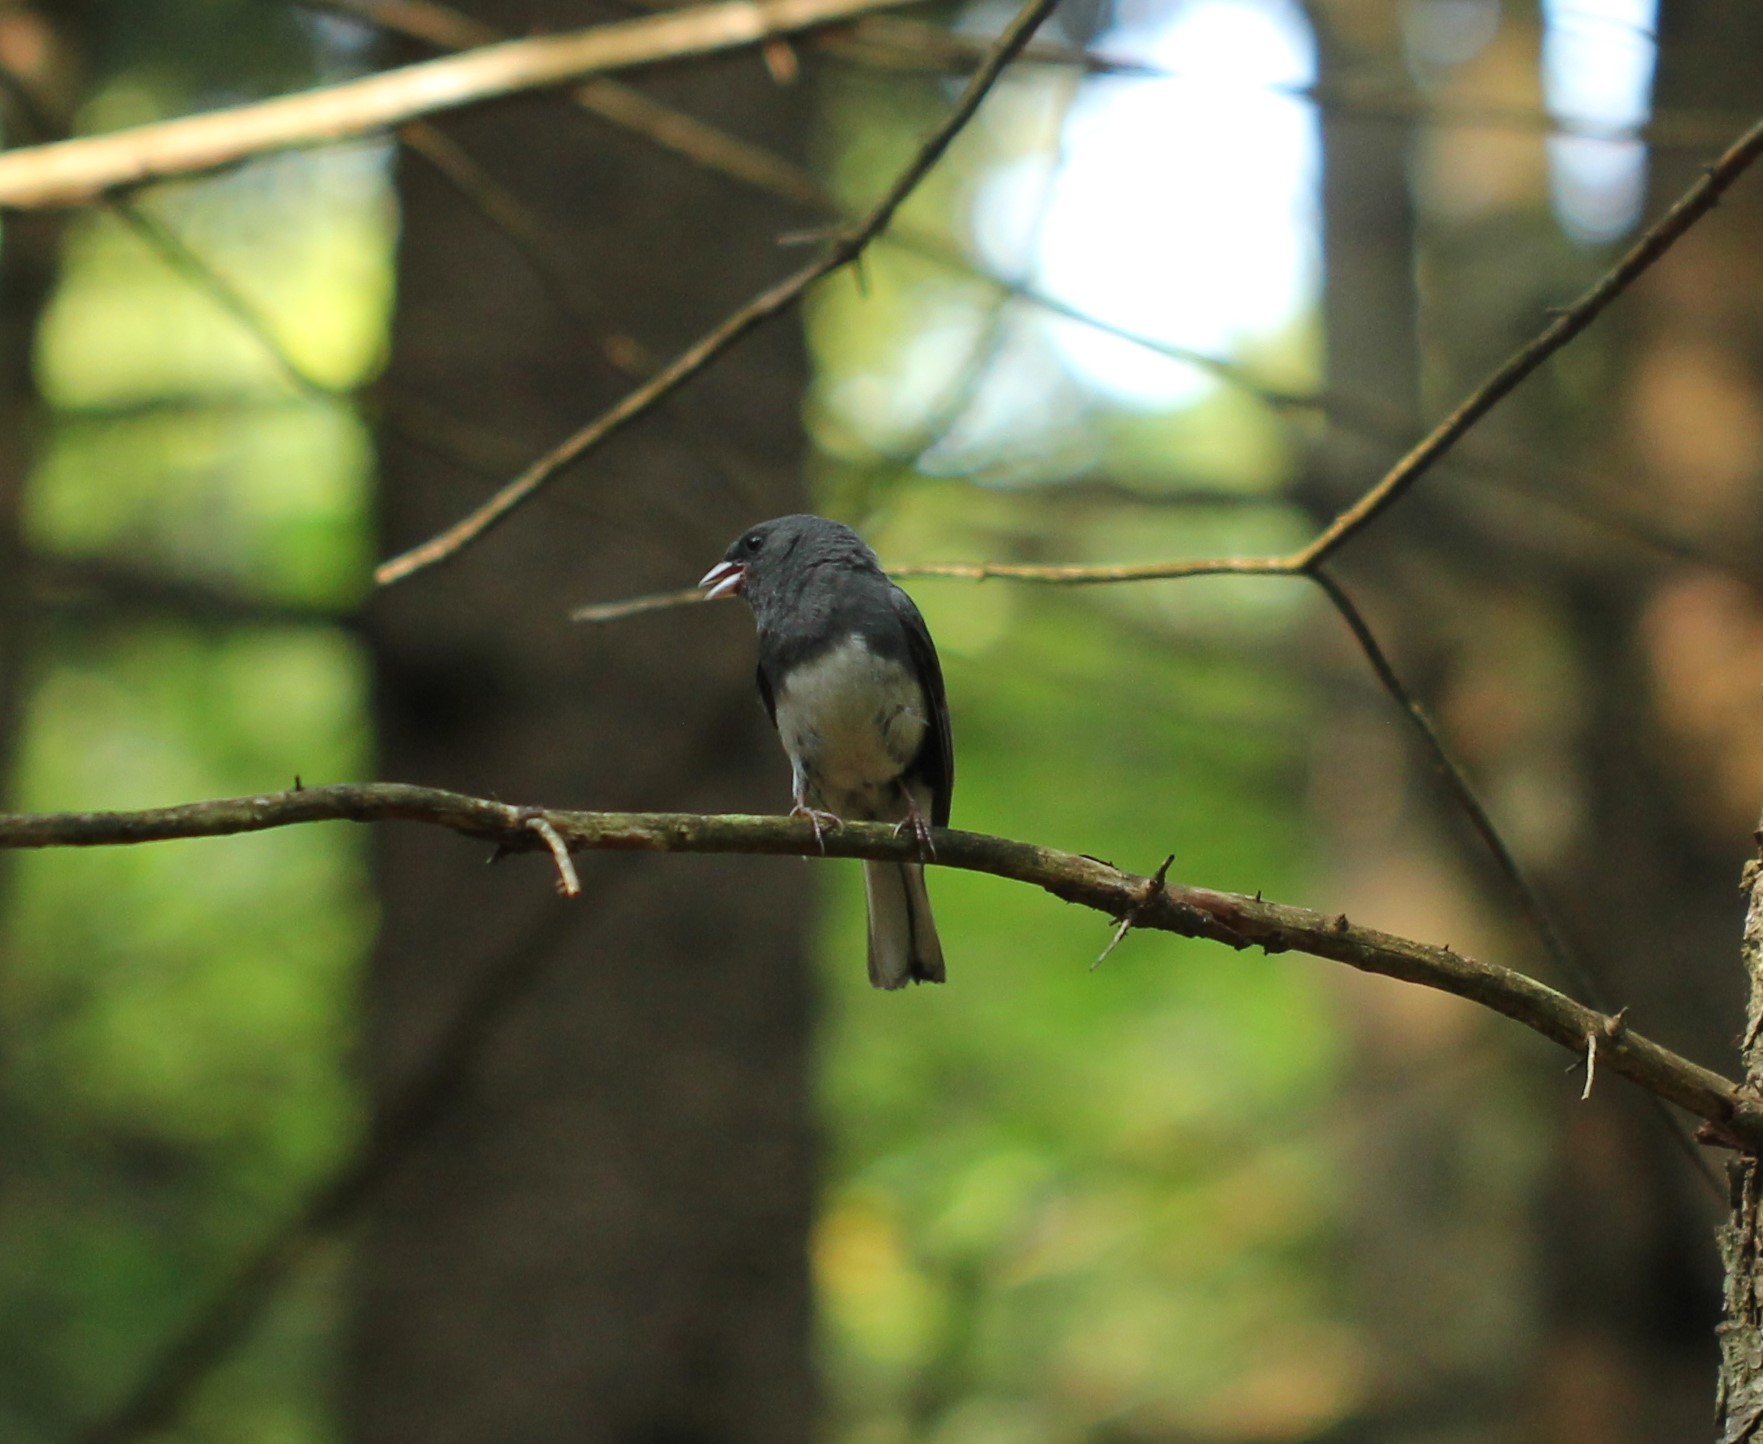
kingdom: Animalia
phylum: Chordata
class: Aves
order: Passeriformes
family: Passerellidae
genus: Junco
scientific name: Junco hyemalis
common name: Dark-eyed junco
